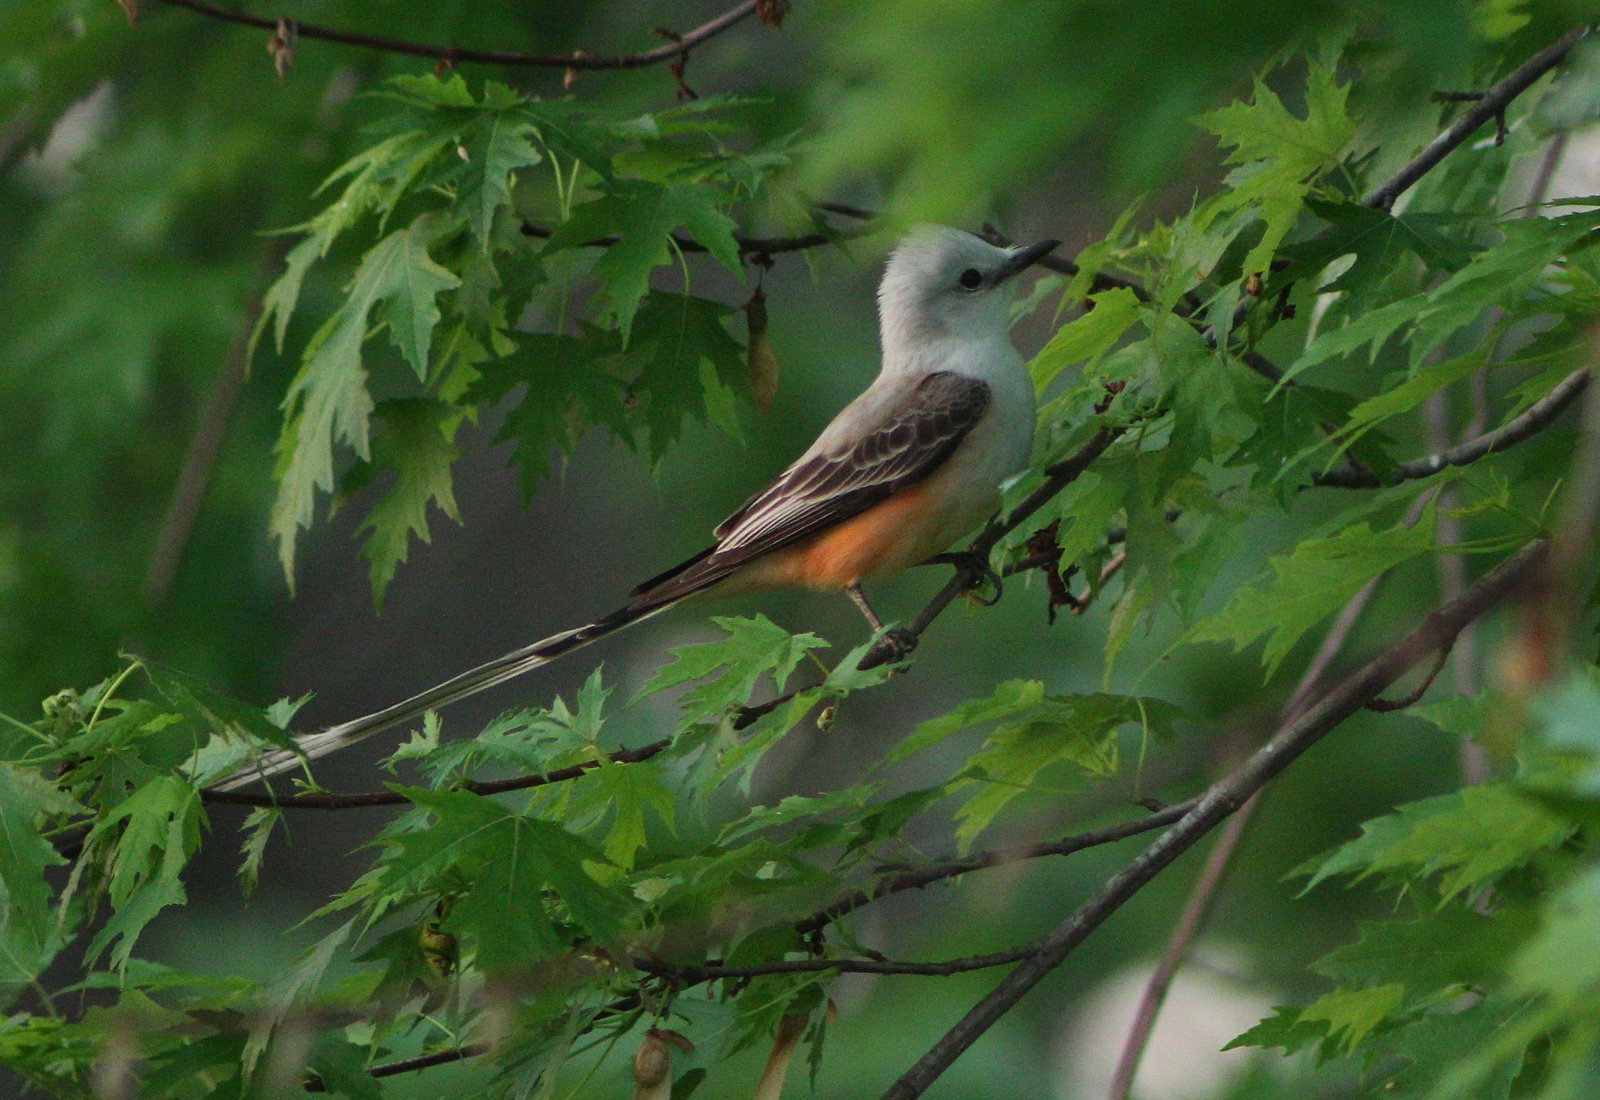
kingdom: Animalia
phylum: Chordata
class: Aves
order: Passeriformes
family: Tyrannidae
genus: Tyrannus
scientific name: Tyrannus forficatus
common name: Scissor-tailed flycatcher
